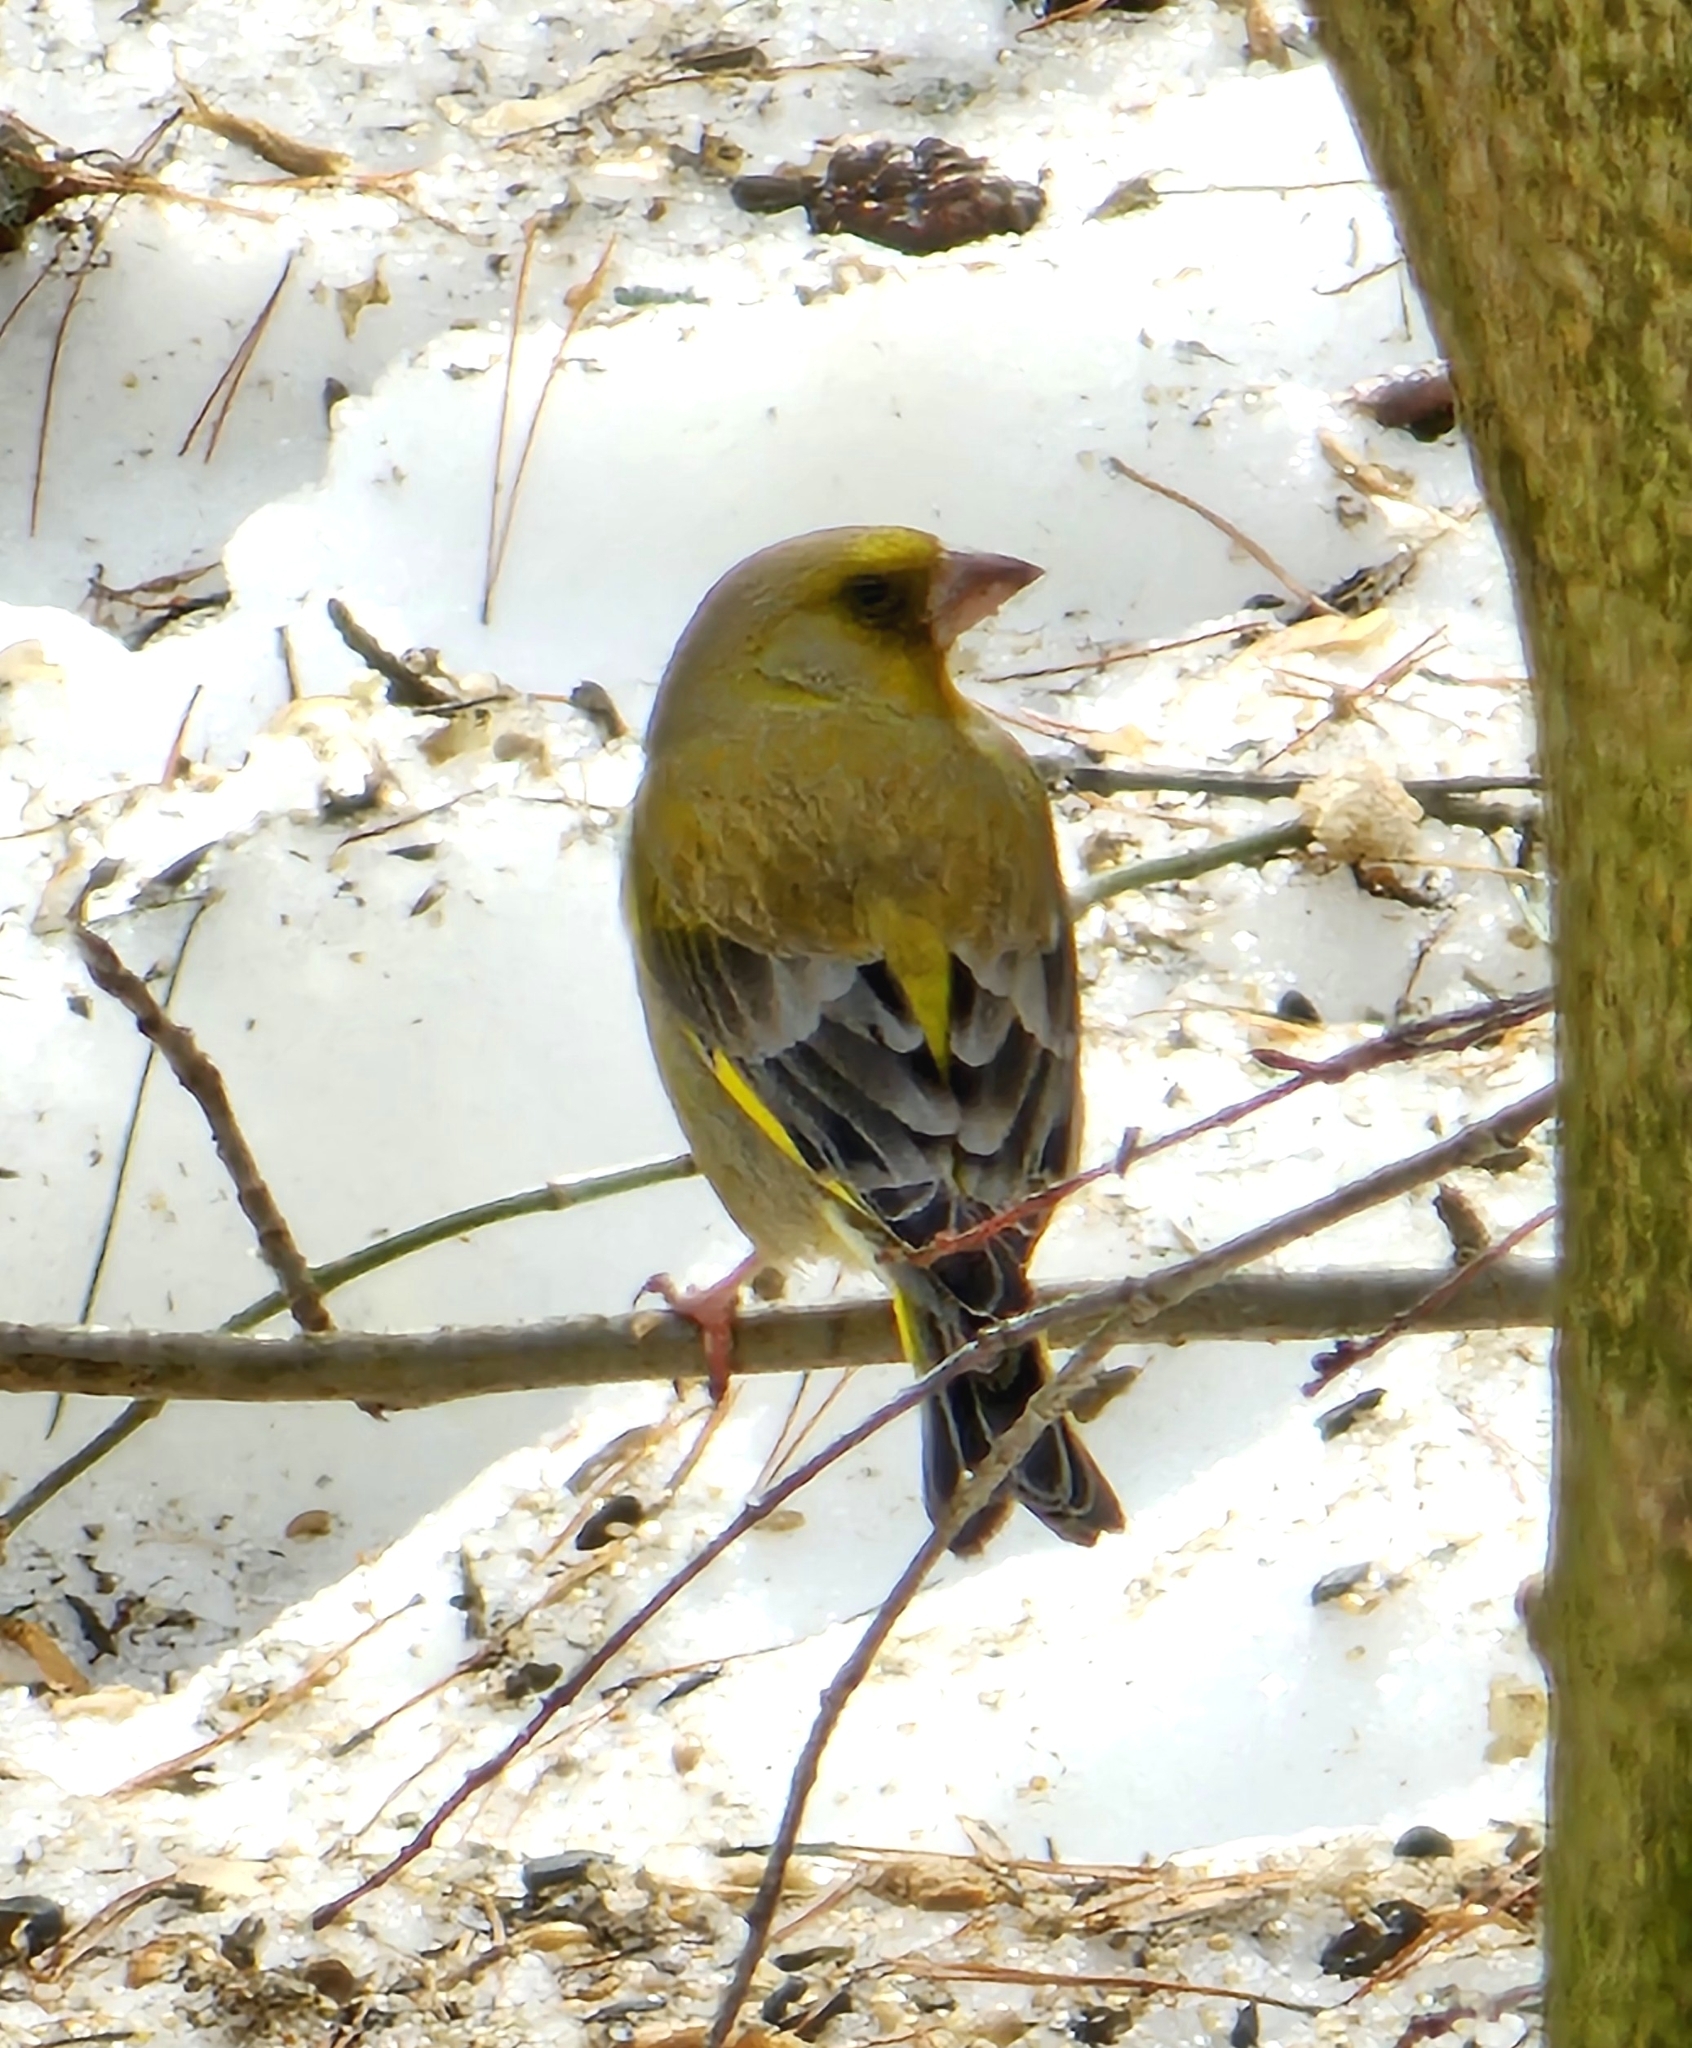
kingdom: Plantae
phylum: Tracheophyta
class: Liliopsida
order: Poales
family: Poaceae
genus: Chloris
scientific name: Chloris chloris
